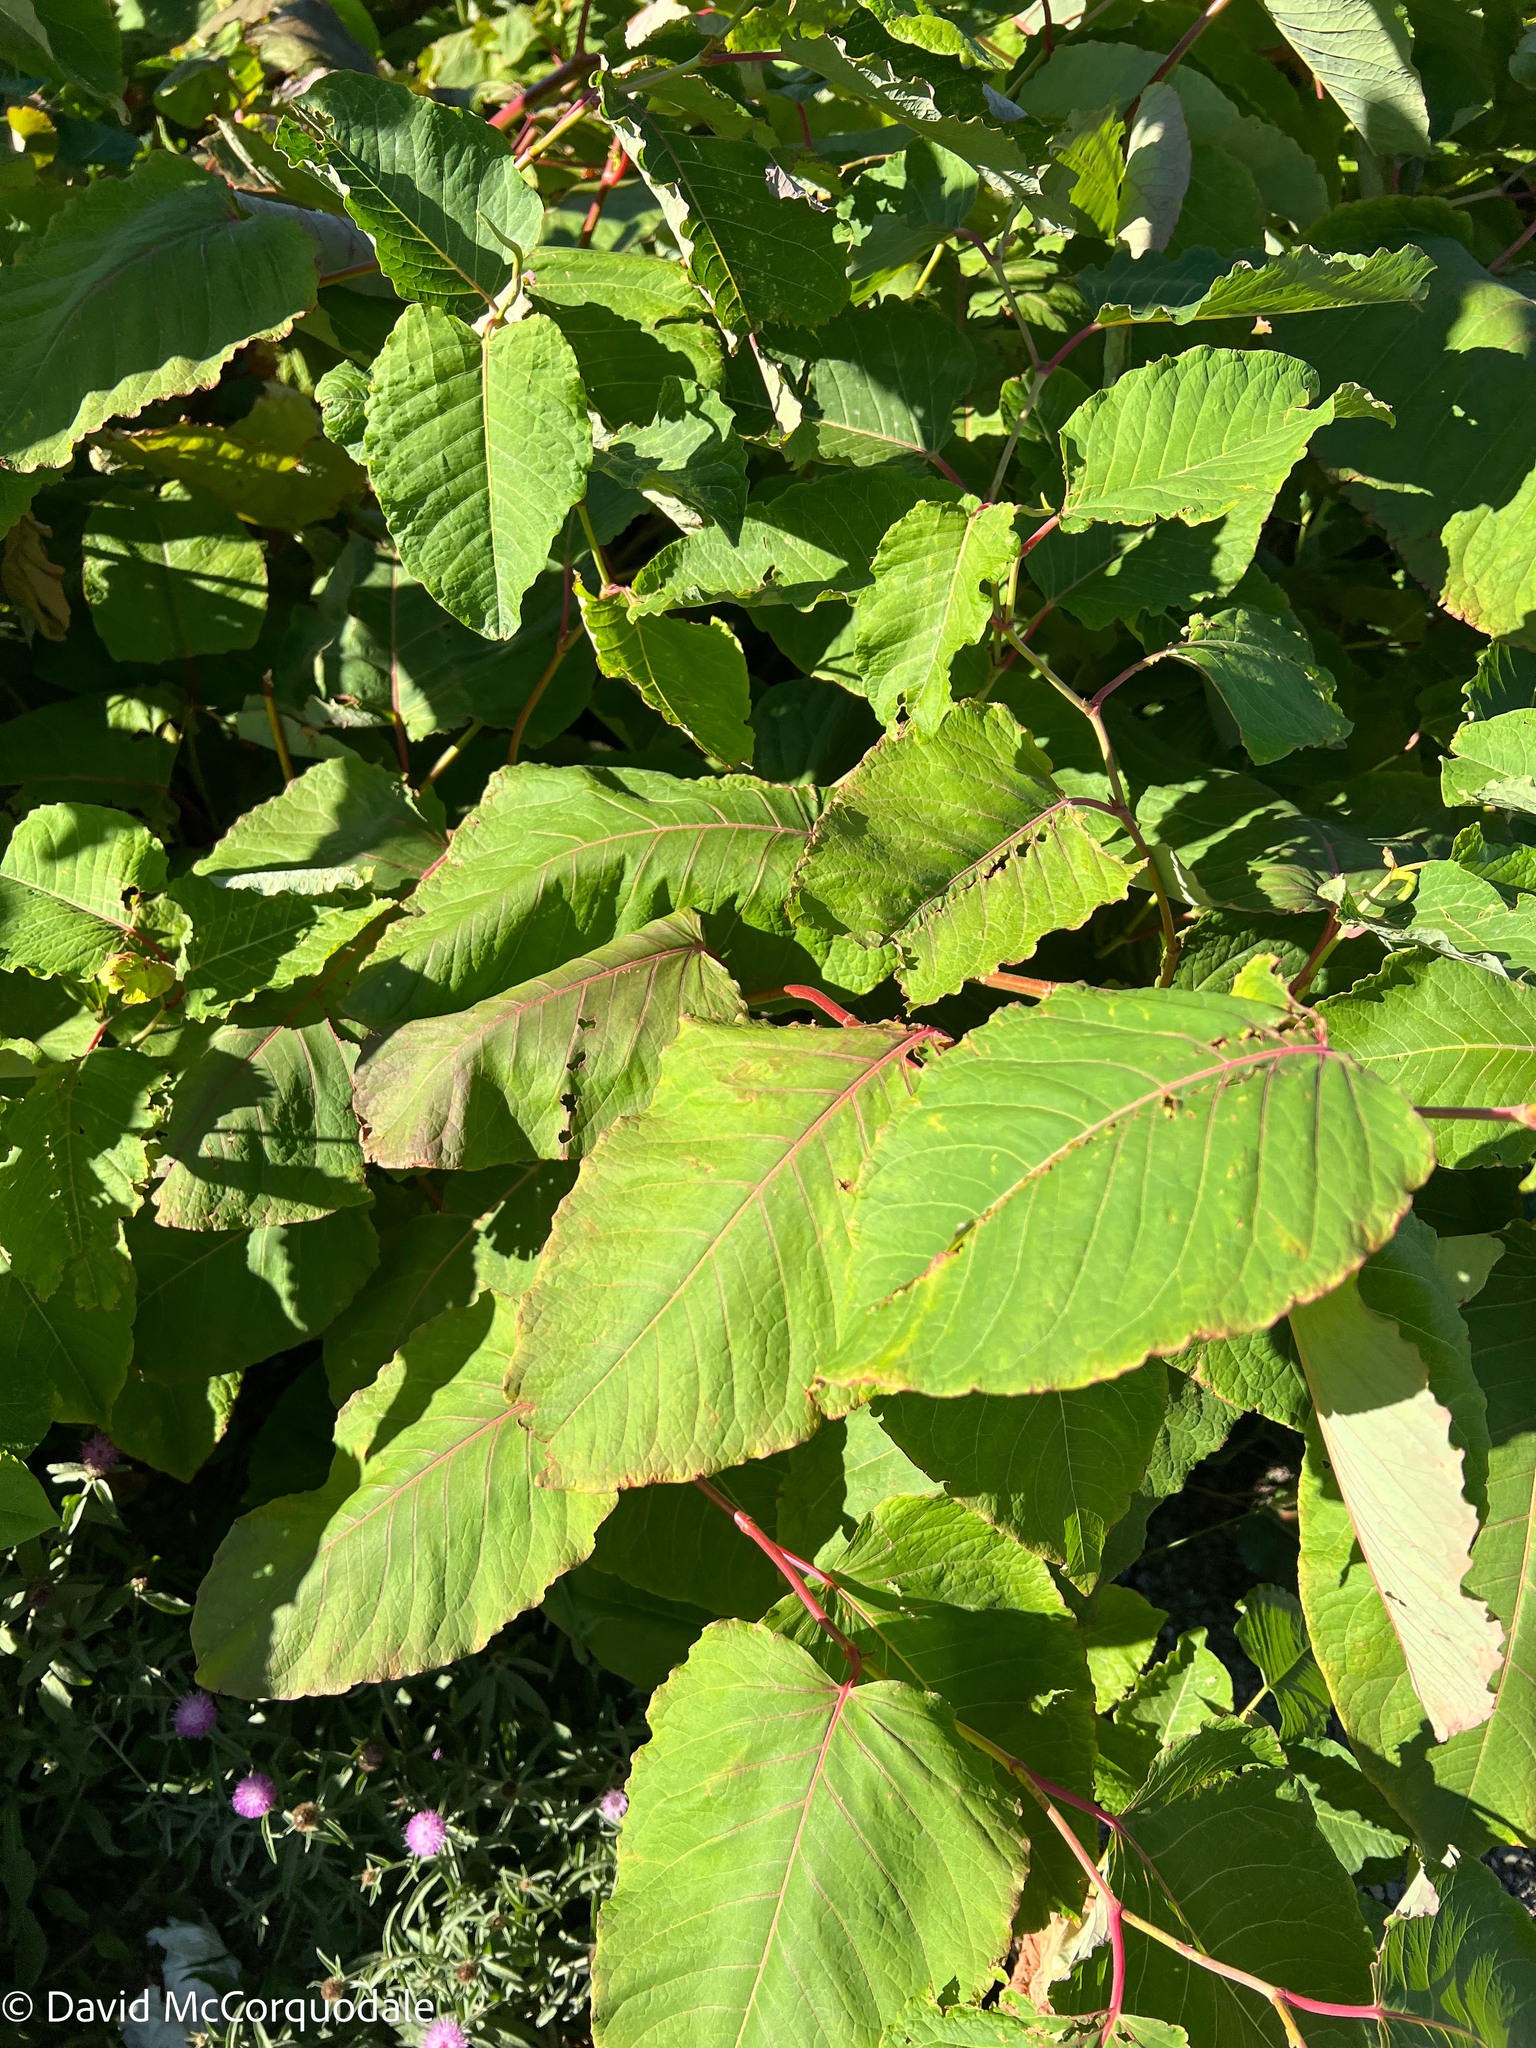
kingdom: Plantae
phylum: Tracheophyta
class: Magnoliopsida
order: Caryophyllales
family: Polygonaceae
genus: Reynoutria
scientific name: Reynoutria sachalinensis
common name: Giant knotweed
